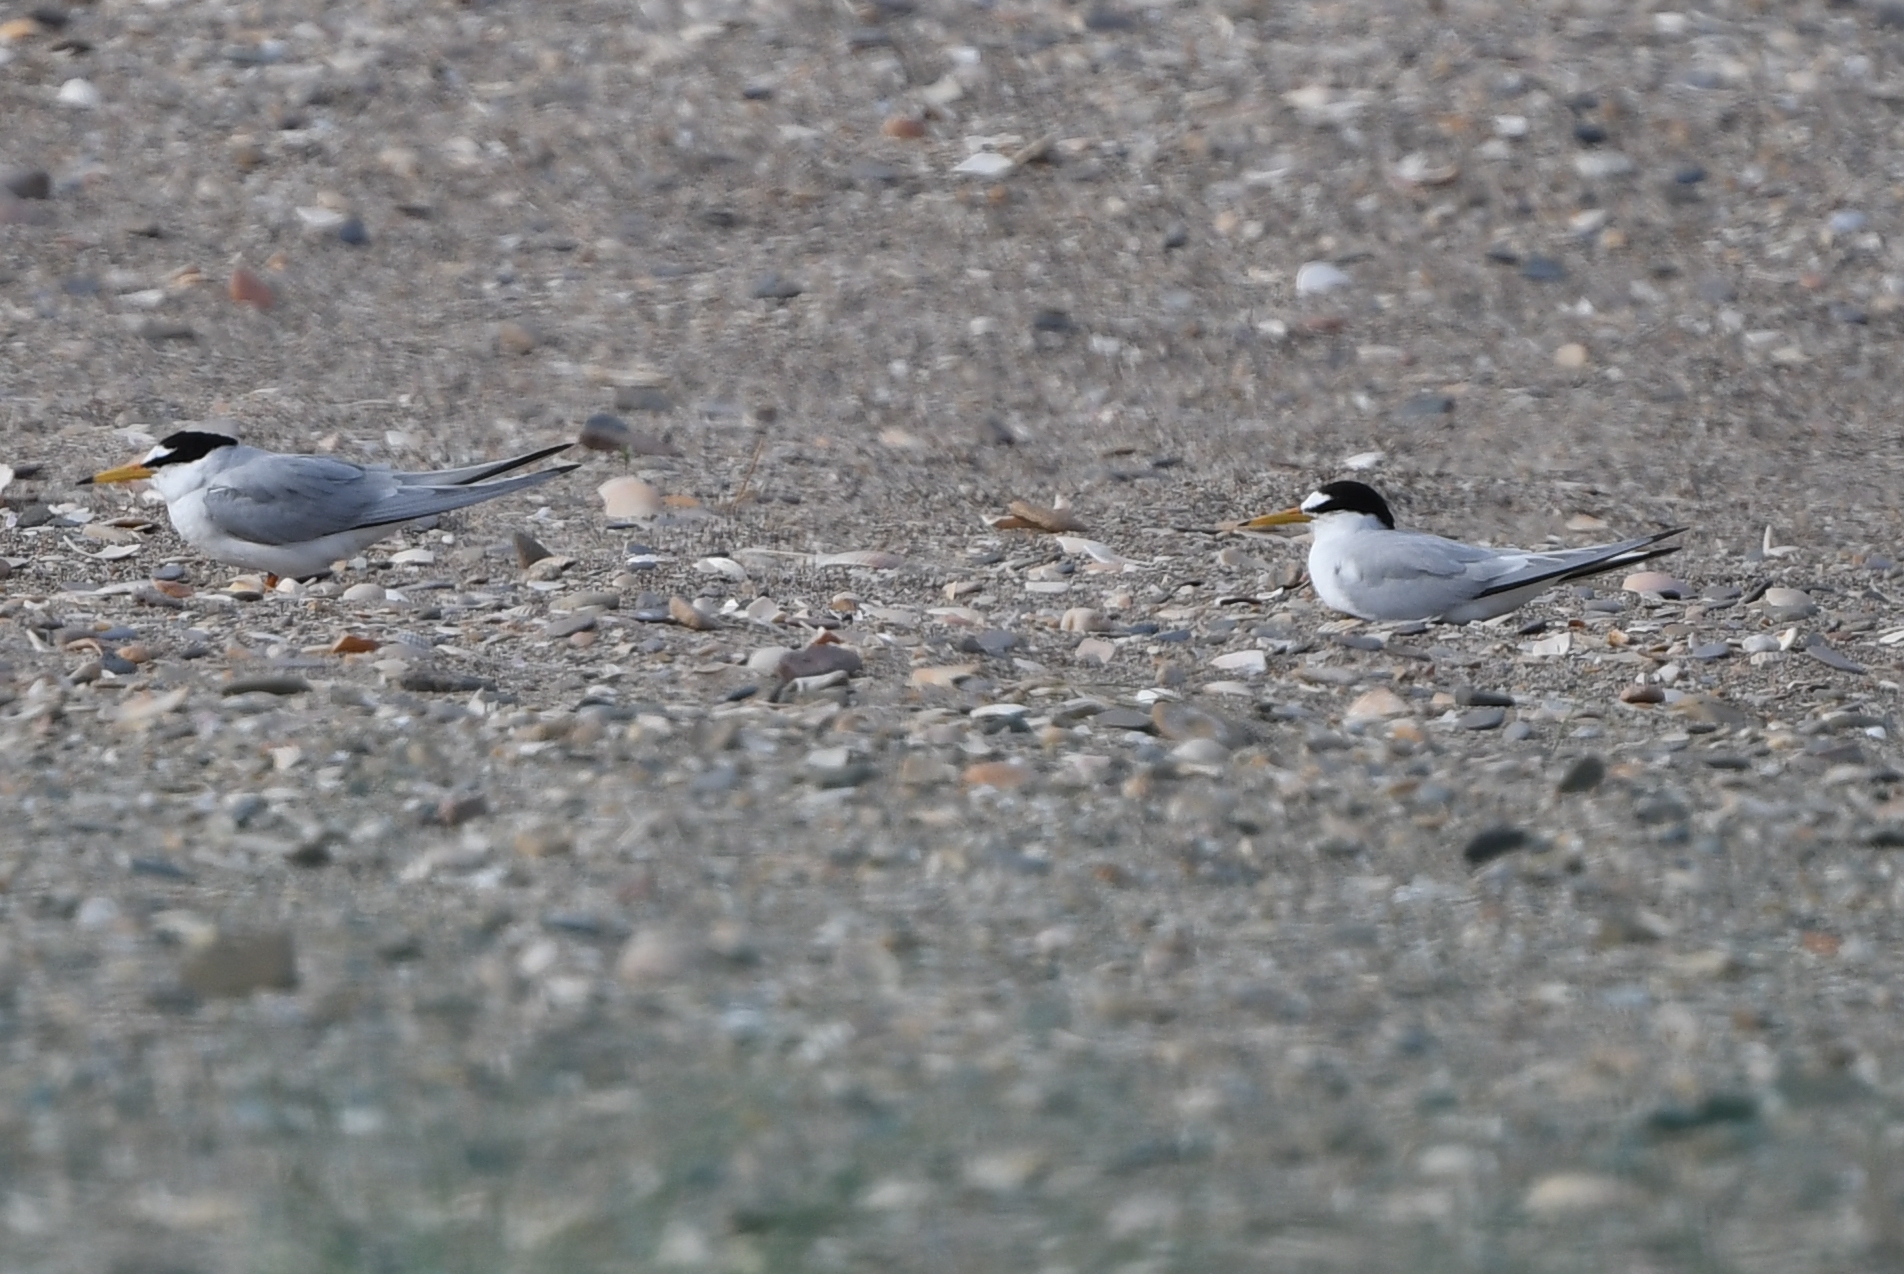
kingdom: Animalia
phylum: Chordata
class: Aves
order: Charadriiformes
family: Laridae
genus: Sternula
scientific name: Sternula albifrons
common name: Little tern
